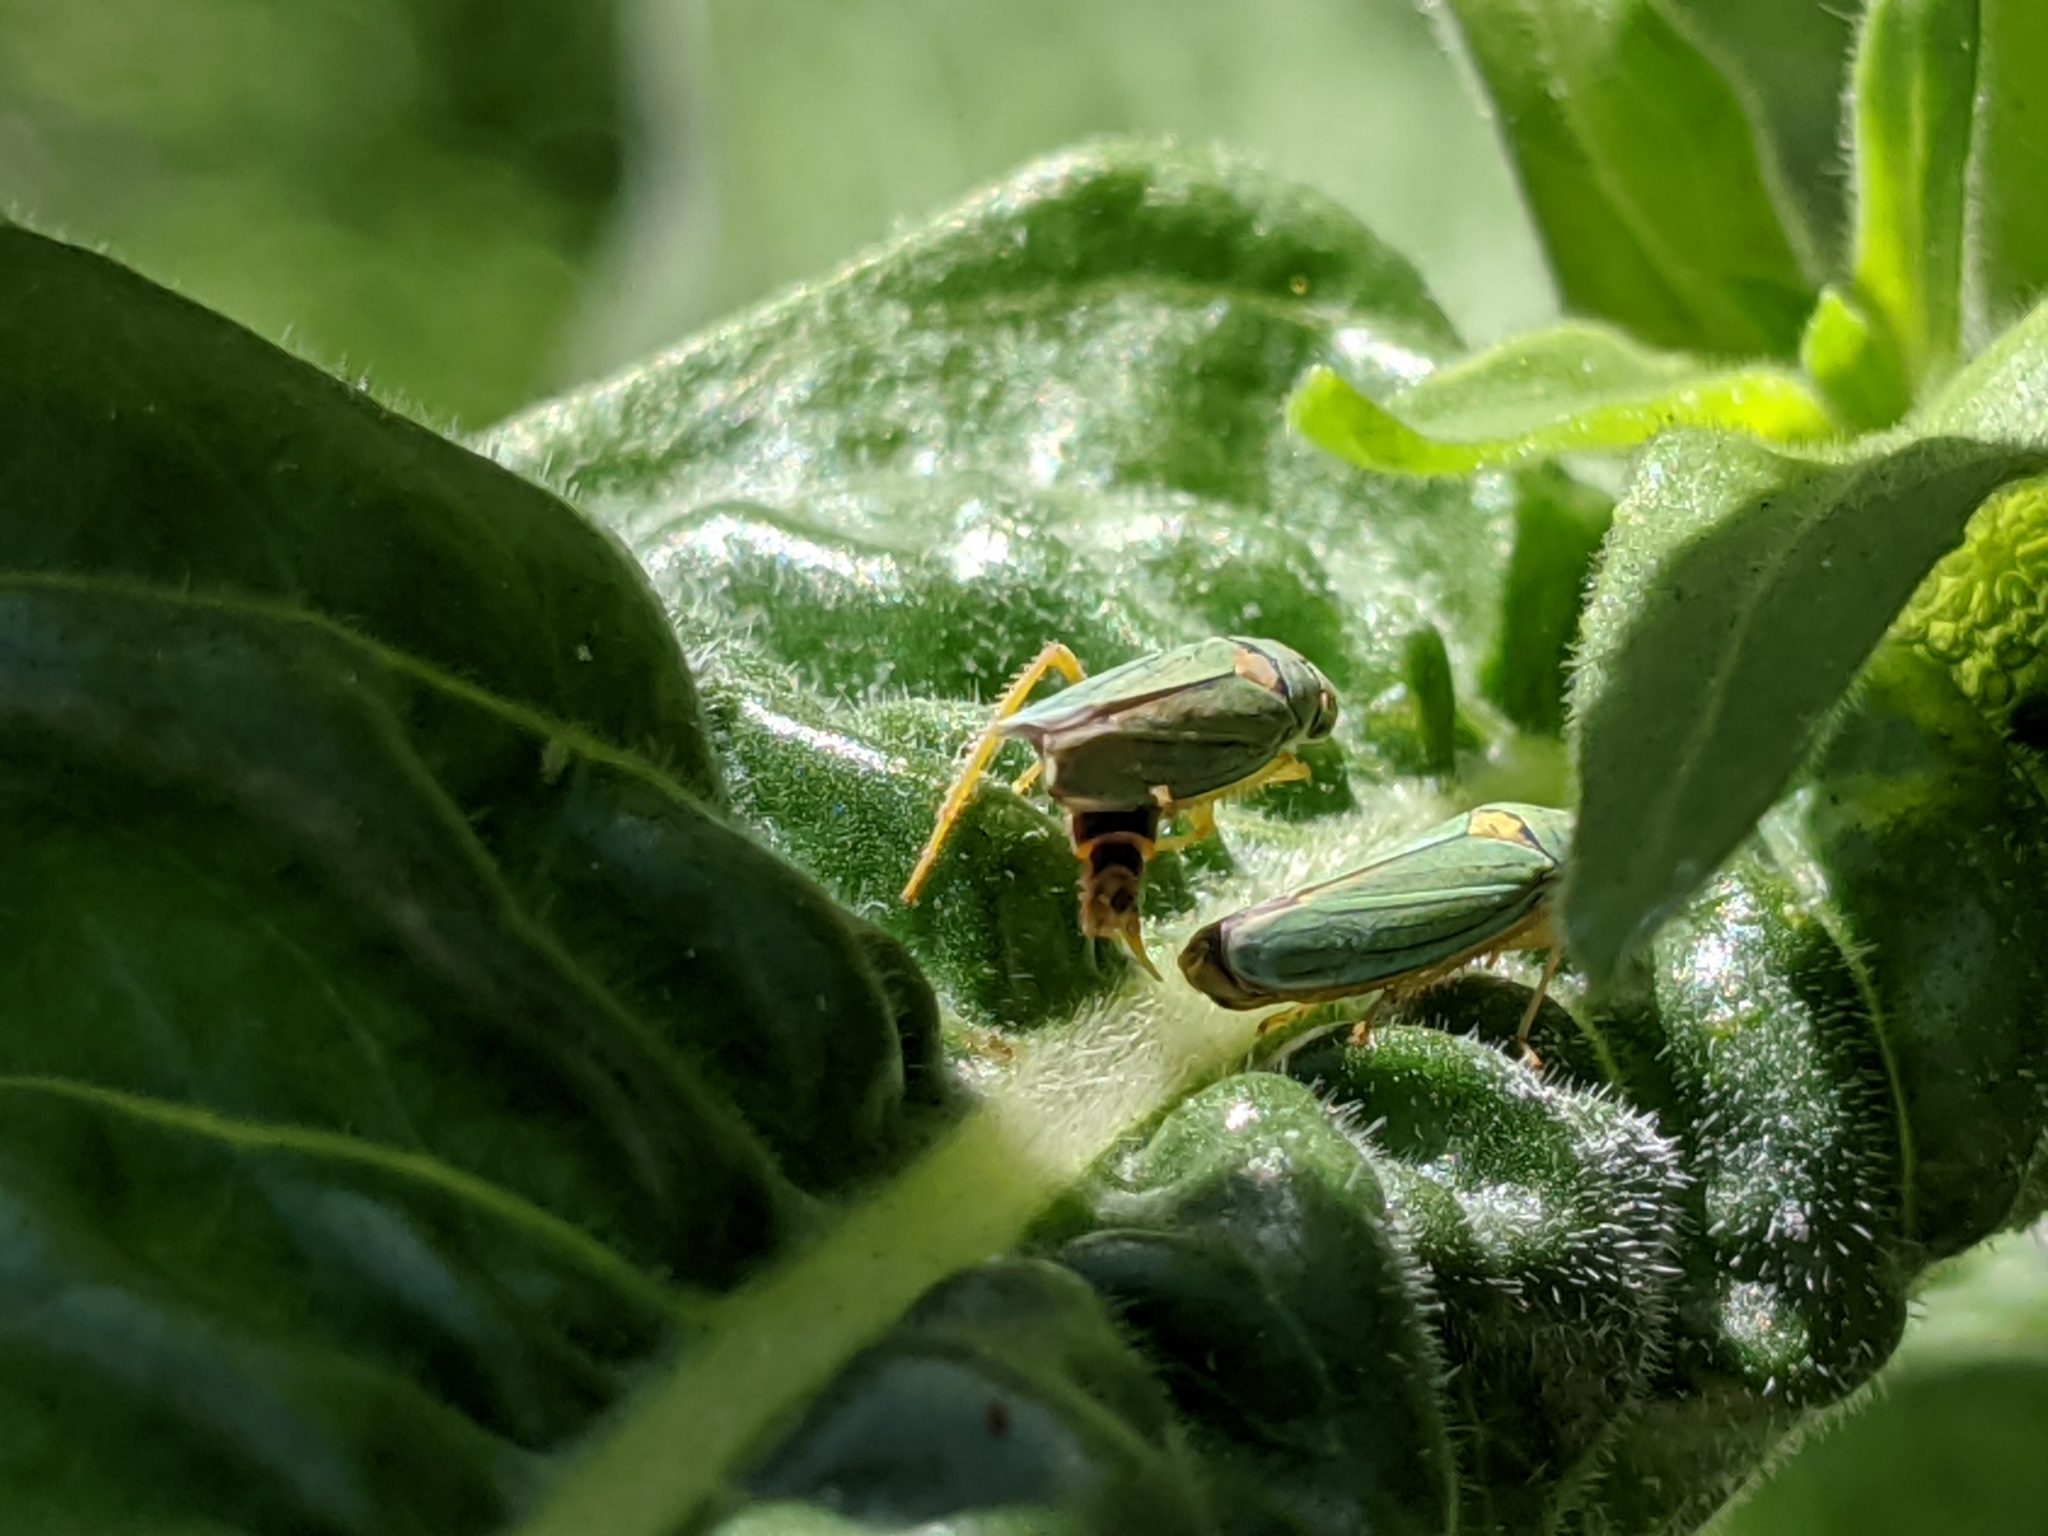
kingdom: Animalia
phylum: Arthropoda
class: Insecta
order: Hemiptera
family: Cicadellidae
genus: Graphocephala
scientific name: Graphocephala atropunctata
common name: Blue-green sharpshooter
